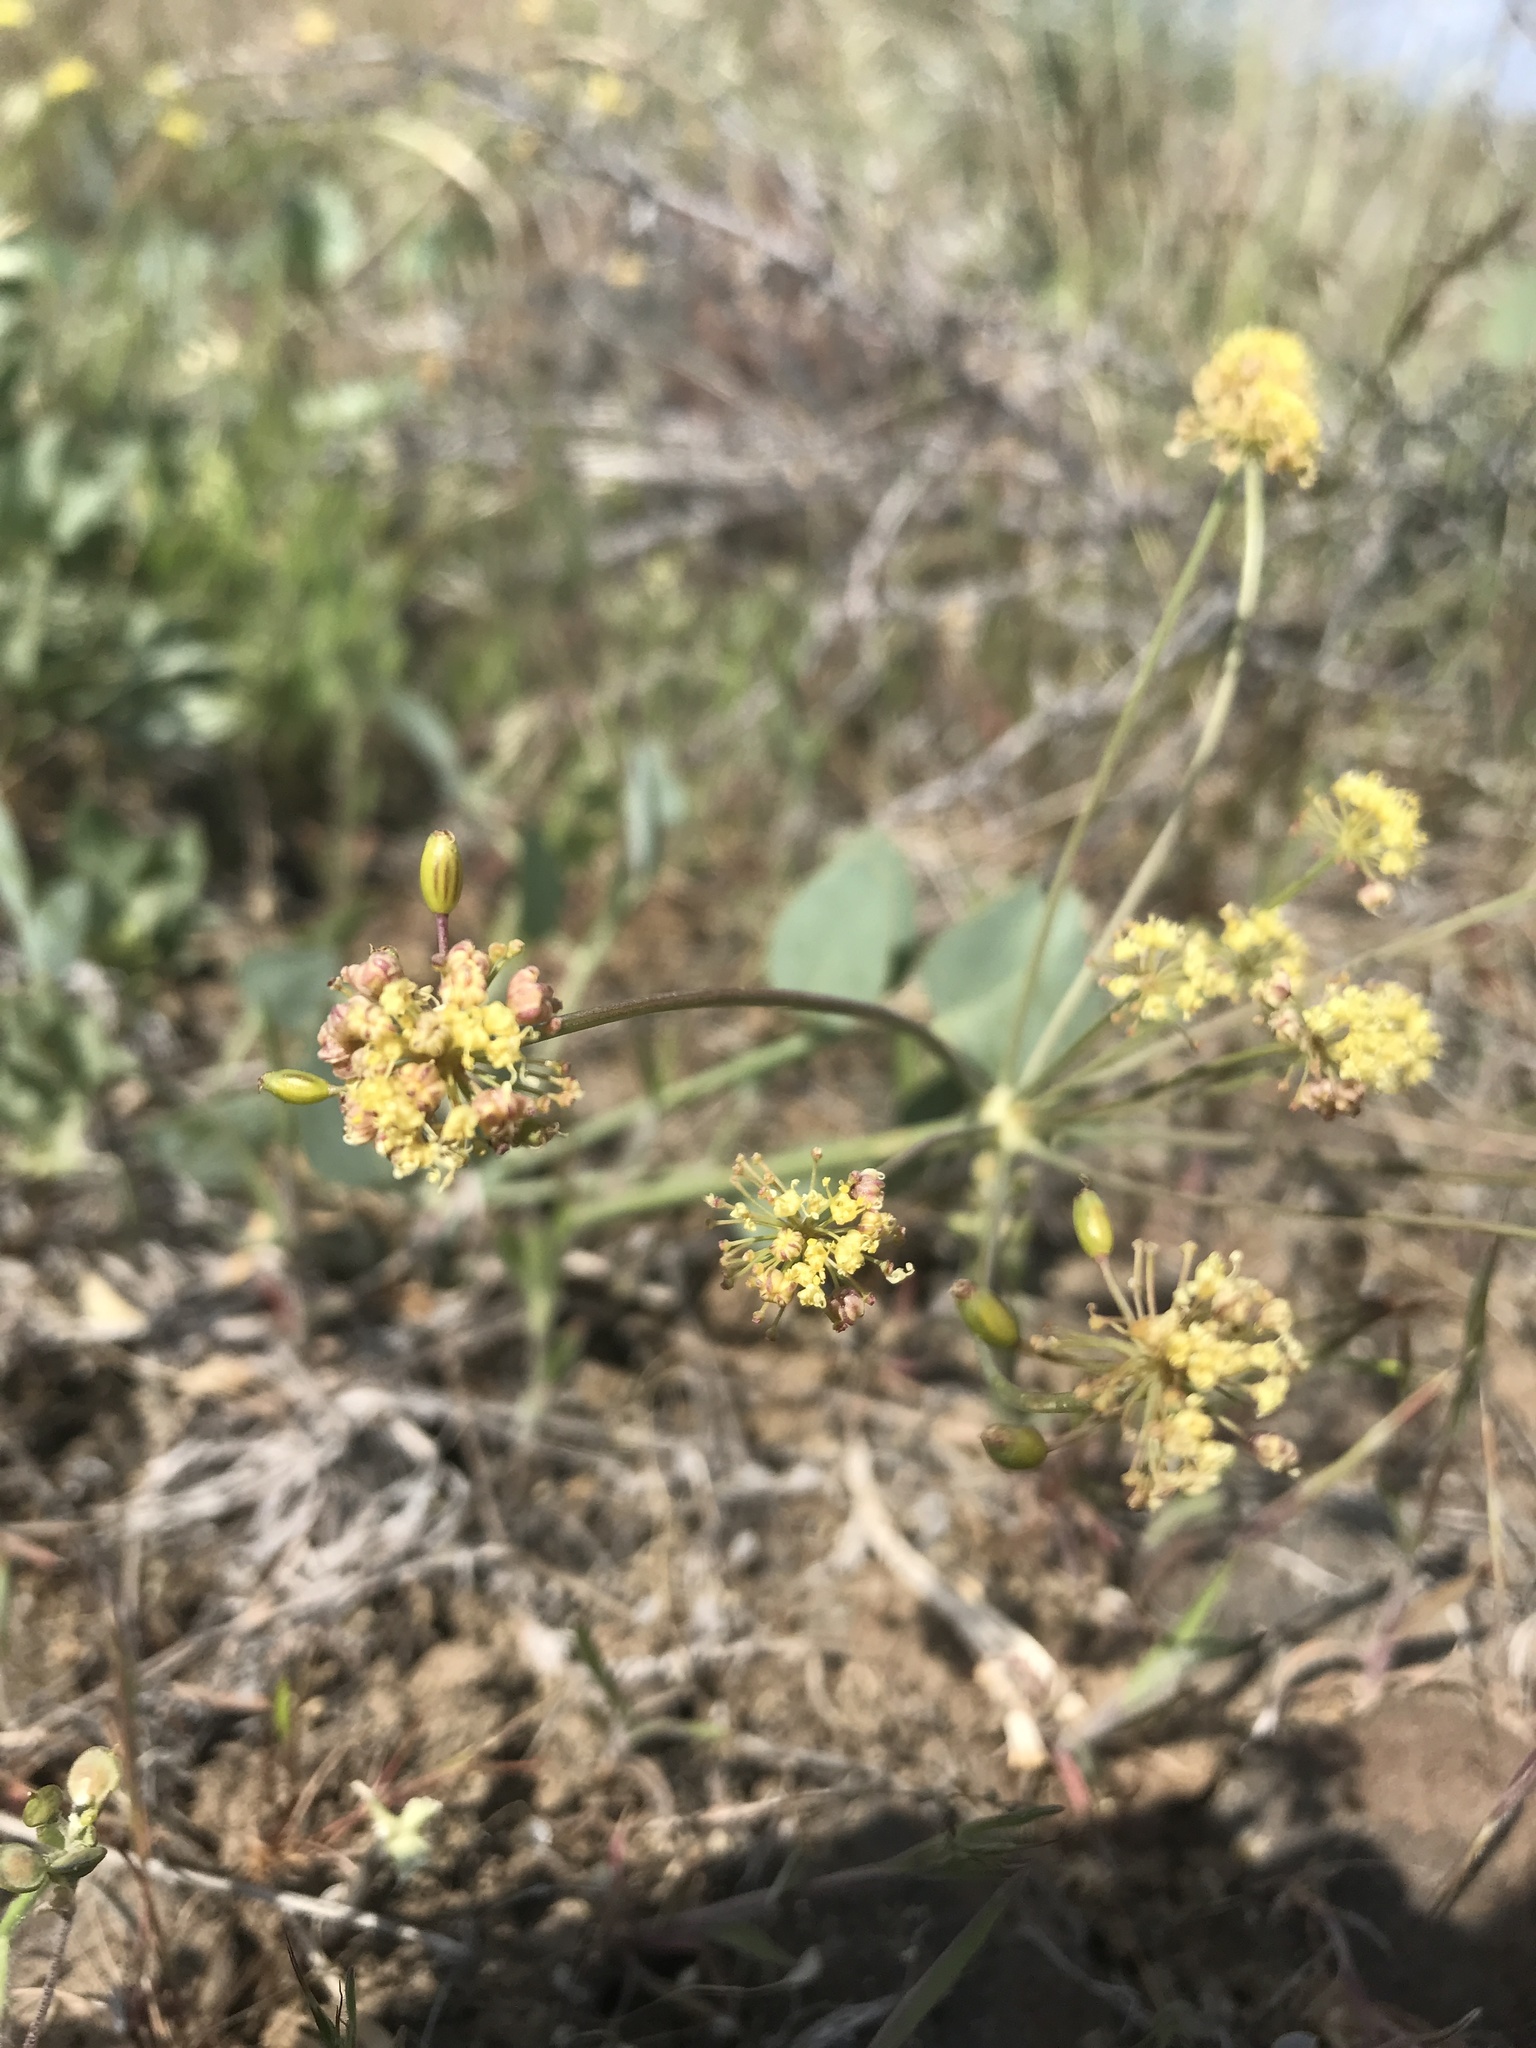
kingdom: Plantae
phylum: Tracheophyta
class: Magnoliopsida
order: Apiales
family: Apiaceae
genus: Lomatium
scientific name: Lomatium nudicaule
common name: Pestle lomatium
